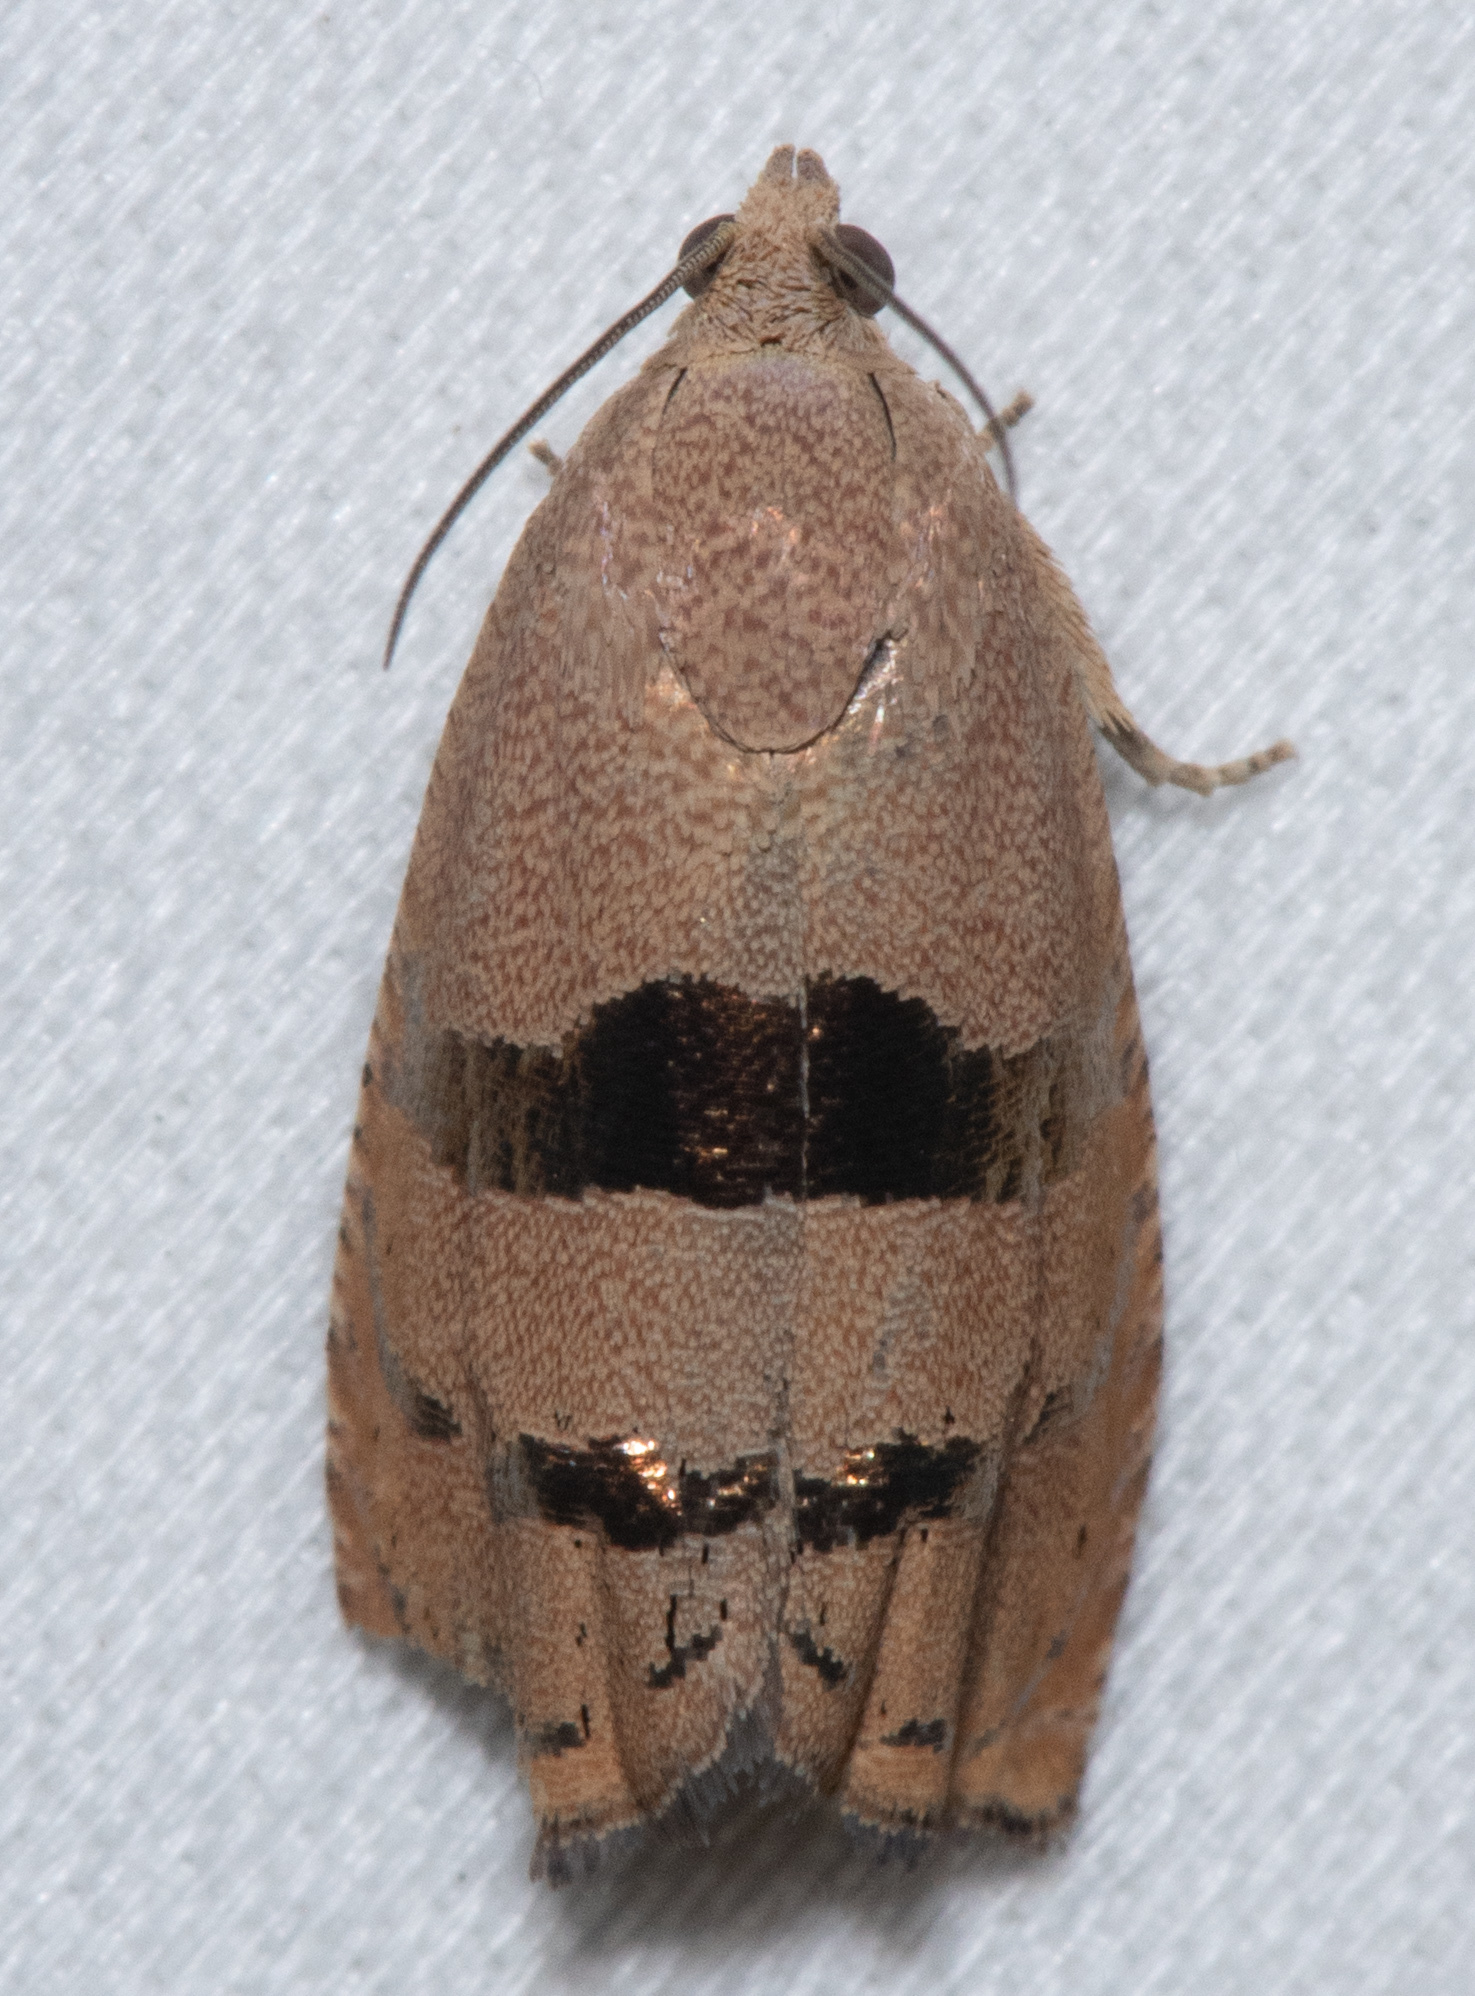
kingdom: Animalia
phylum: Arthropoda
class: Insecta
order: Lepidoptera
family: Tortricidae
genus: Cydia
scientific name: Cydia latiferreana
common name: Filbertworm moth
